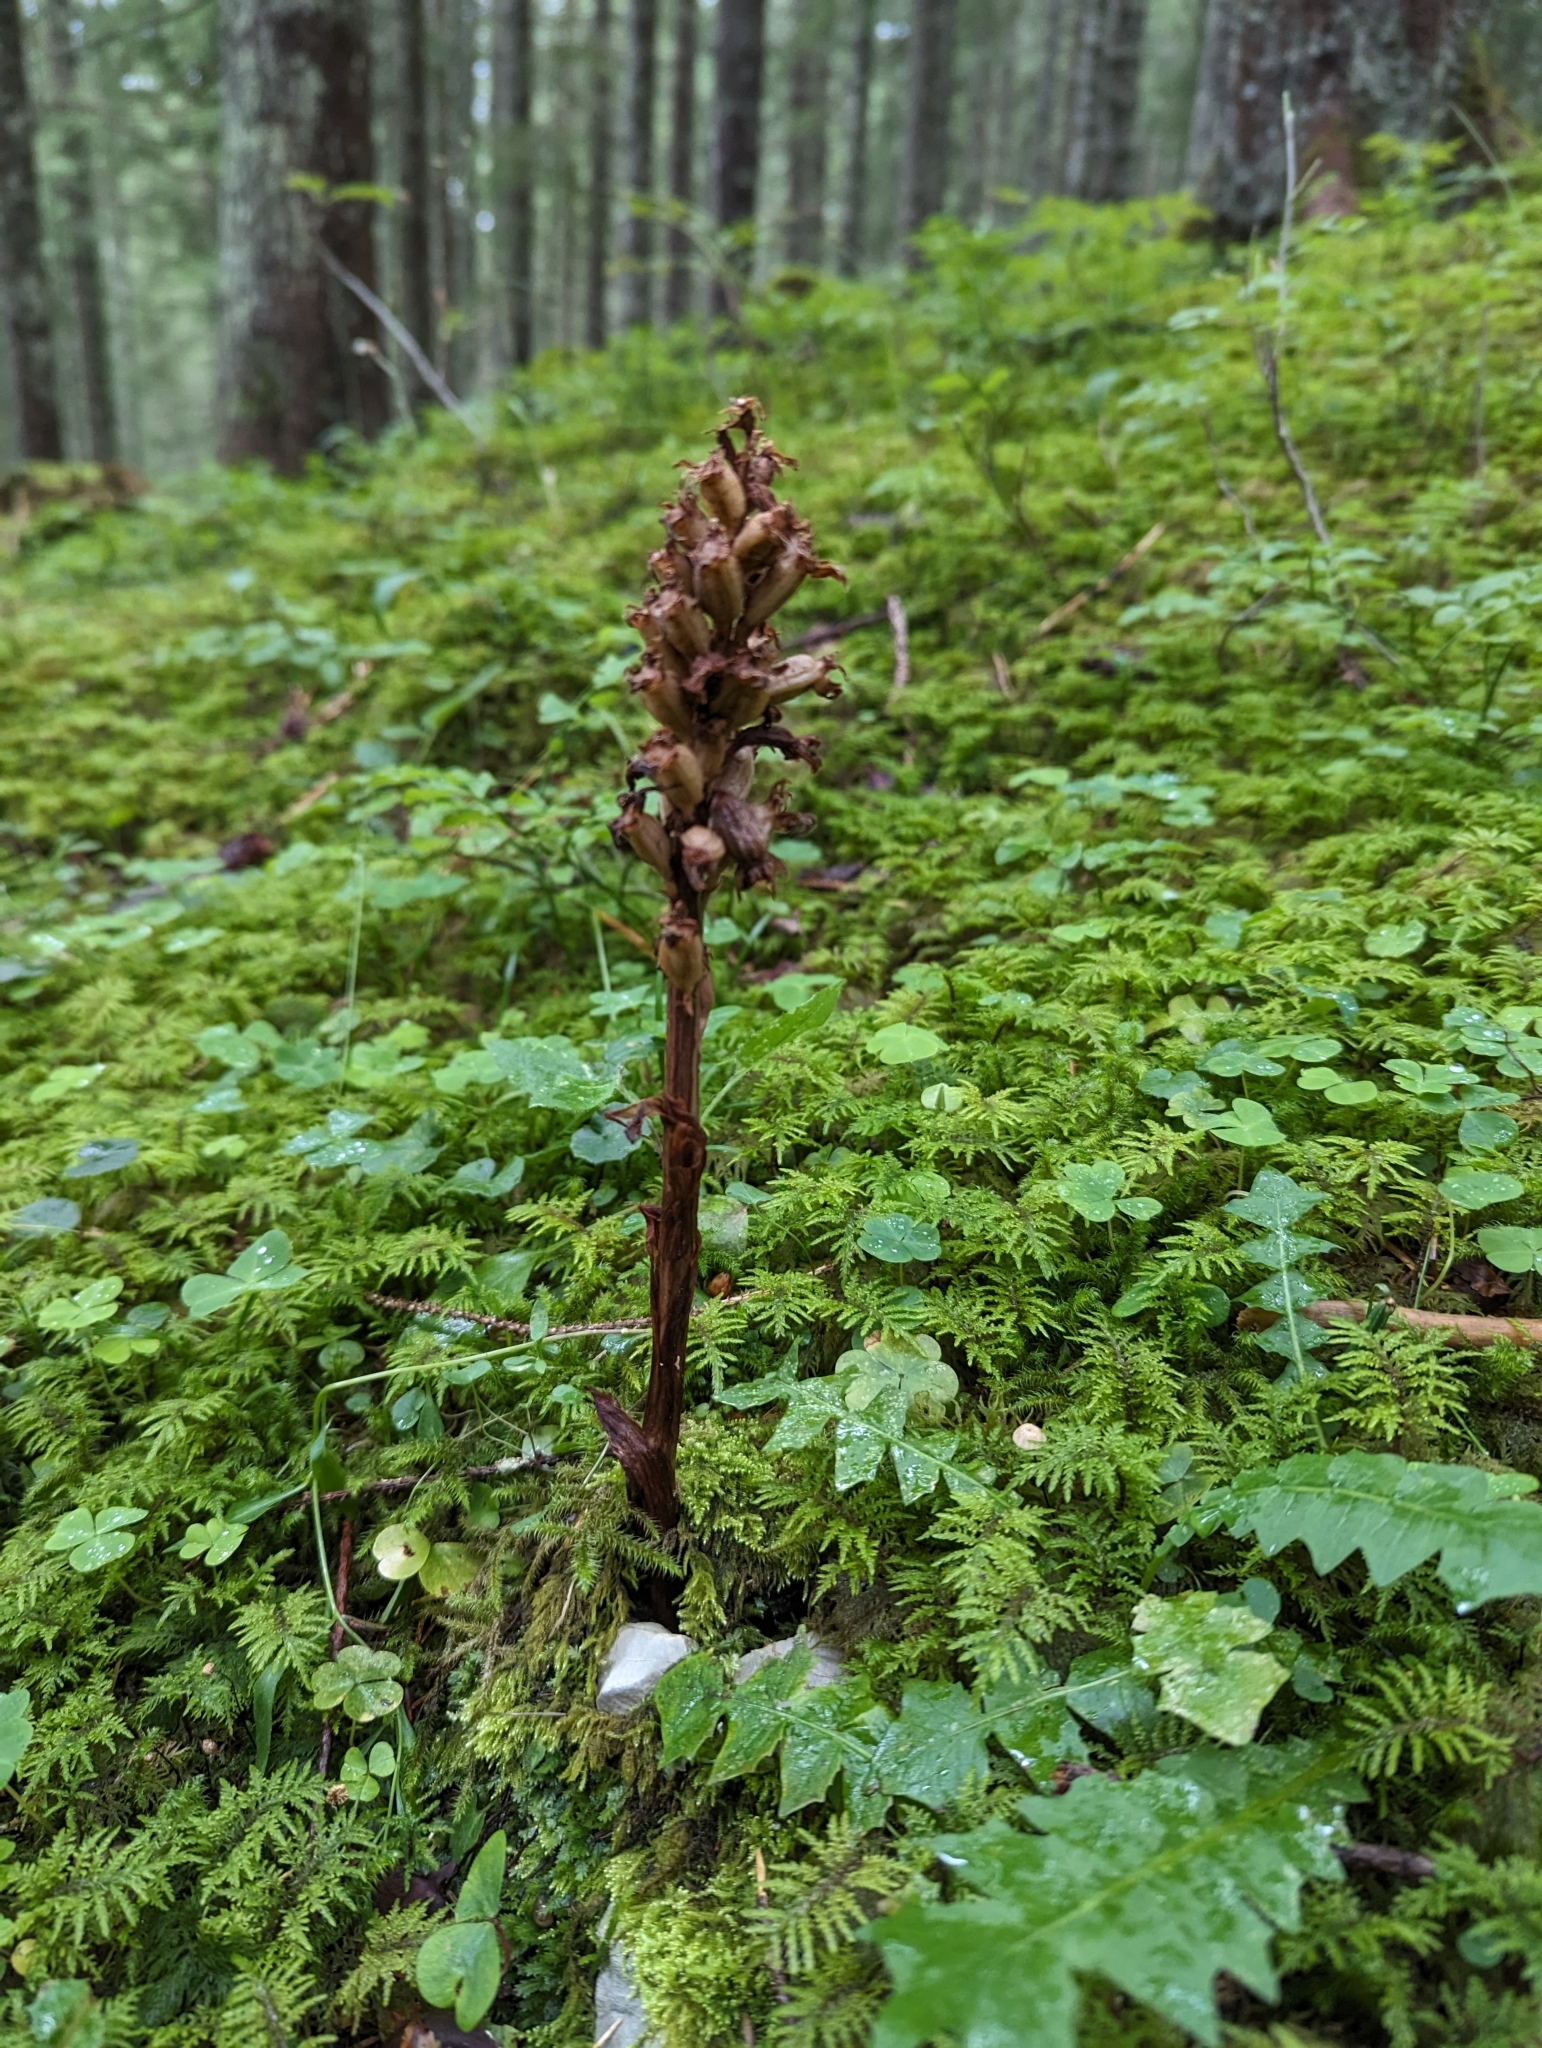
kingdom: Plantae
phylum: Tracheophyta
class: Liliopsida
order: Asparagales
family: Orchidaceae
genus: Neottia
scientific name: Neottia nidus-avis
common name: Bird's-nest orchid
